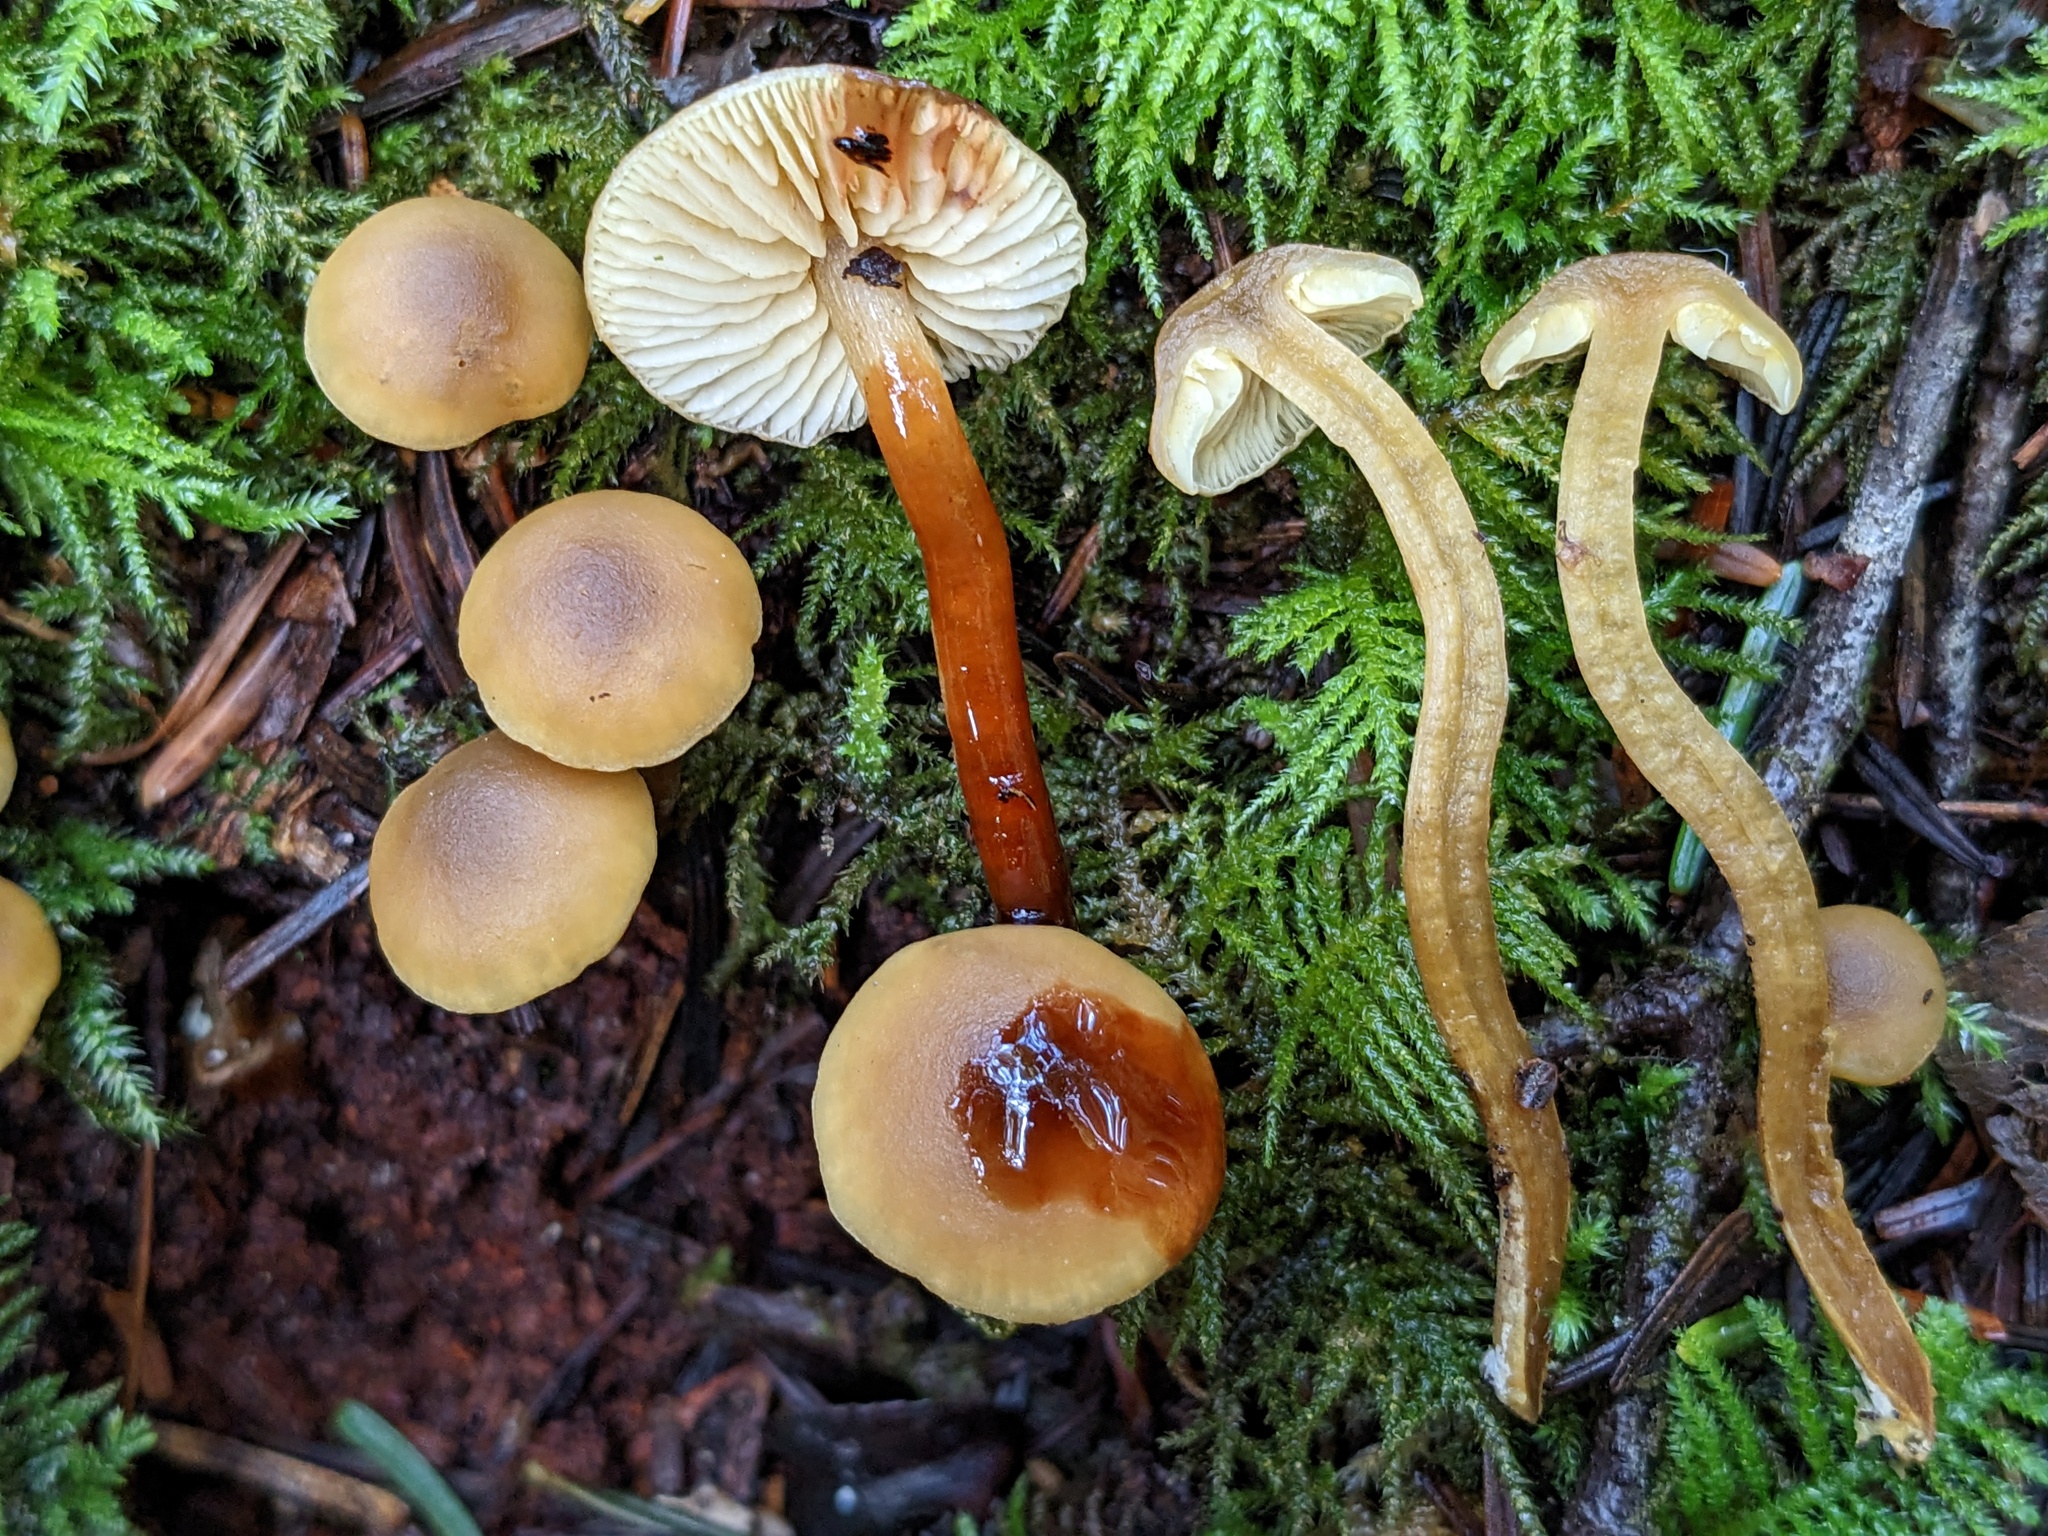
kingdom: Fungi
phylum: Basidiomycota
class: Agaricomycetes
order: Agaricales
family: Callistosporiaceae
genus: Callistosporium
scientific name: Callistosporium luteo-olivaceum
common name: Olive lute
